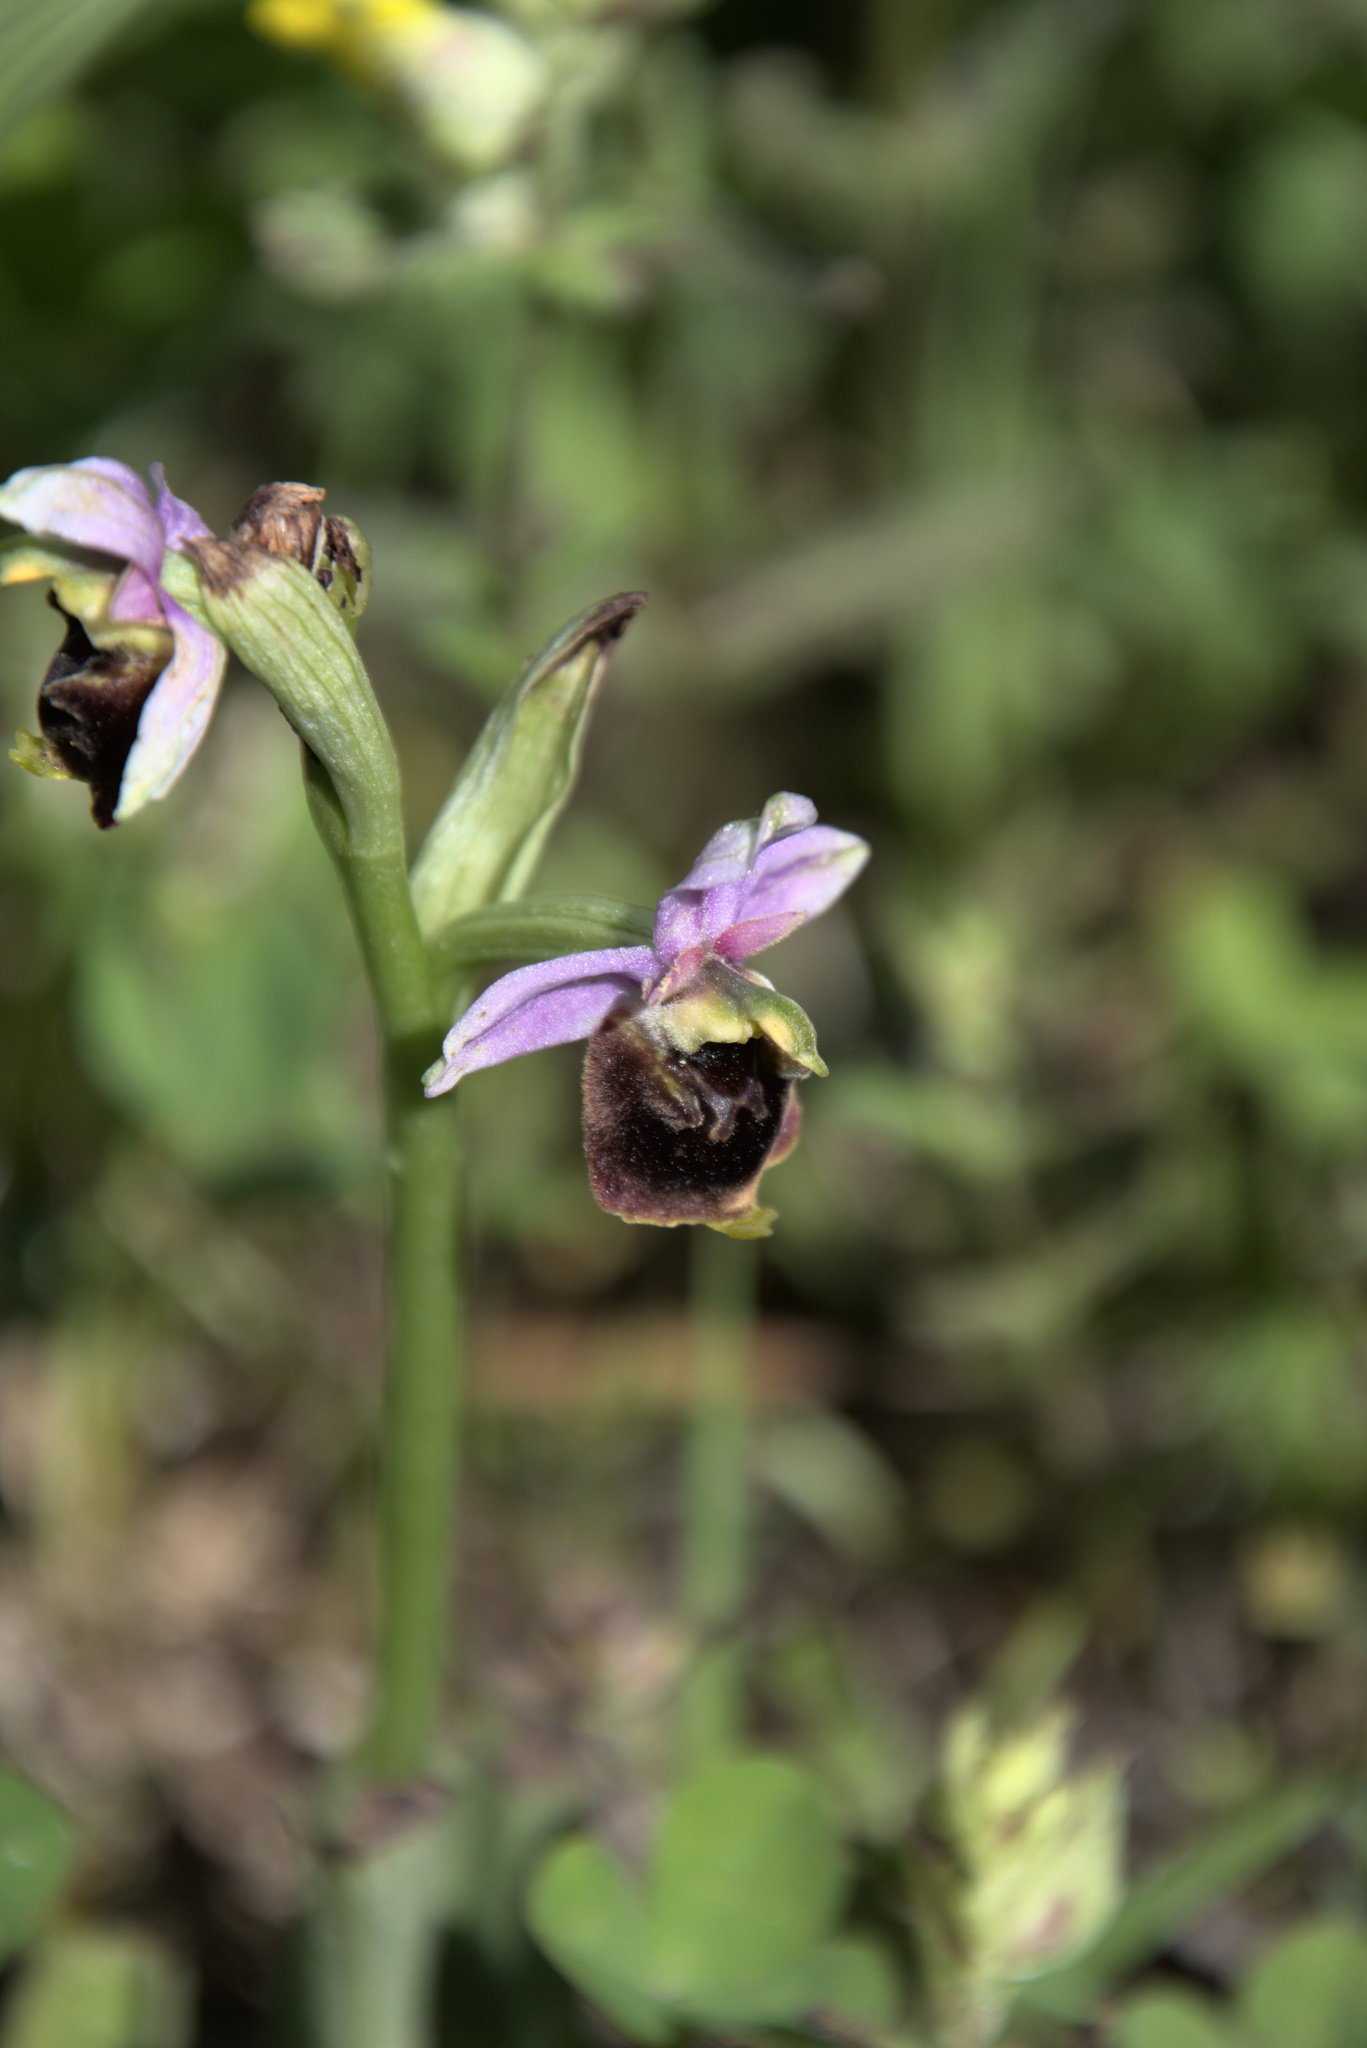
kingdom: Plantae
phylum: Tracheophyta
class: Liliopsida
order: Asparagales
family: Orchidaceae
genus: Ophrys
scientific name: Ophrys holosericea
